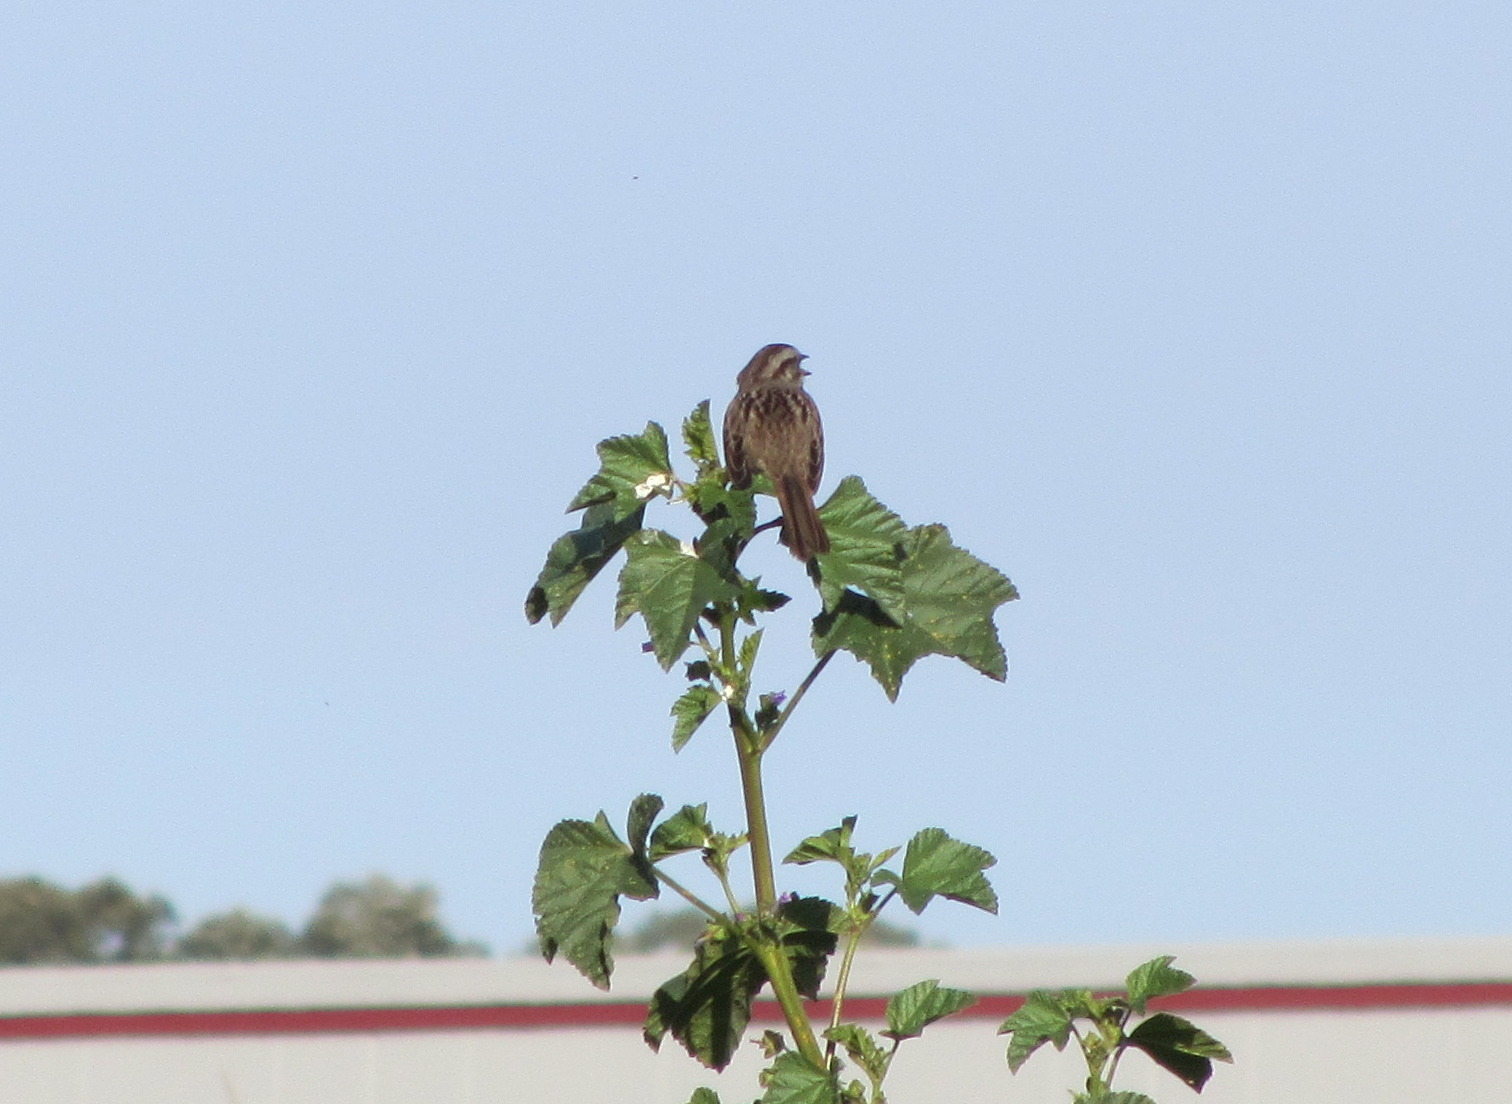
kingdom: Animalia
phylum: Chordata
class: Aves
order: Passeriformes
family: Passerellidae
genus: Melospiza
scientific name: Melospiza melodia
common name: Song sparrow
